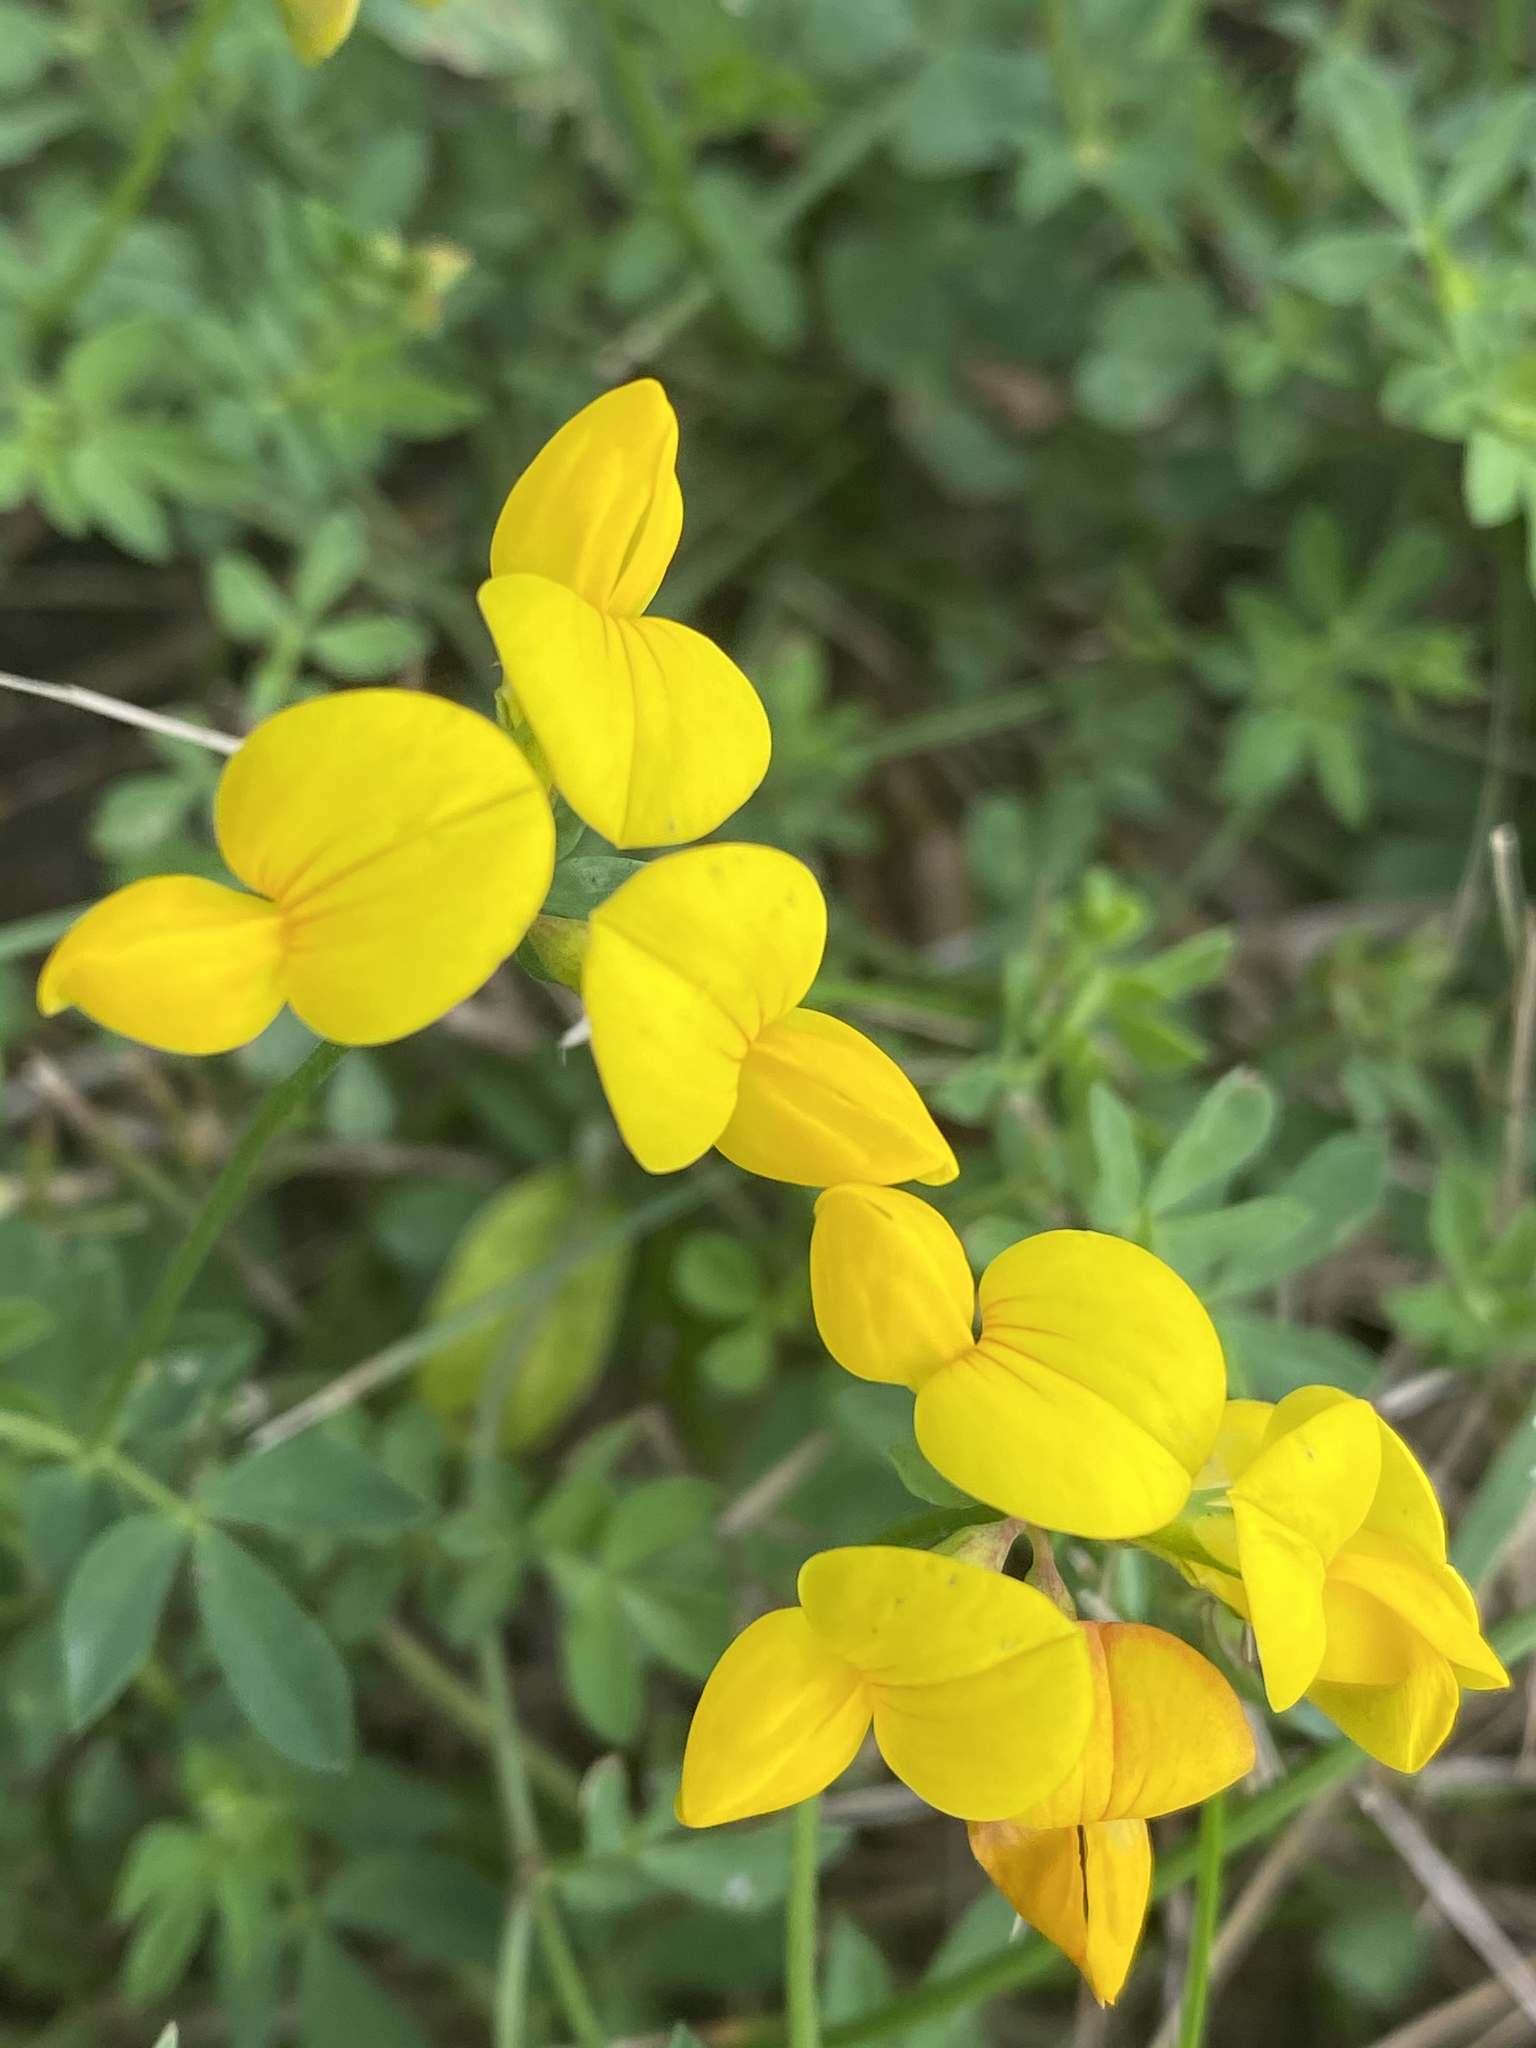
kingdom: Plantae
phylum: Tracheophyta
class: Magnoliopsida
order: Fabales
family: Fabaceae
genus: Lotus
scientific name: Lotus corniculatus
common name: Common bird's-foot-trefoil
